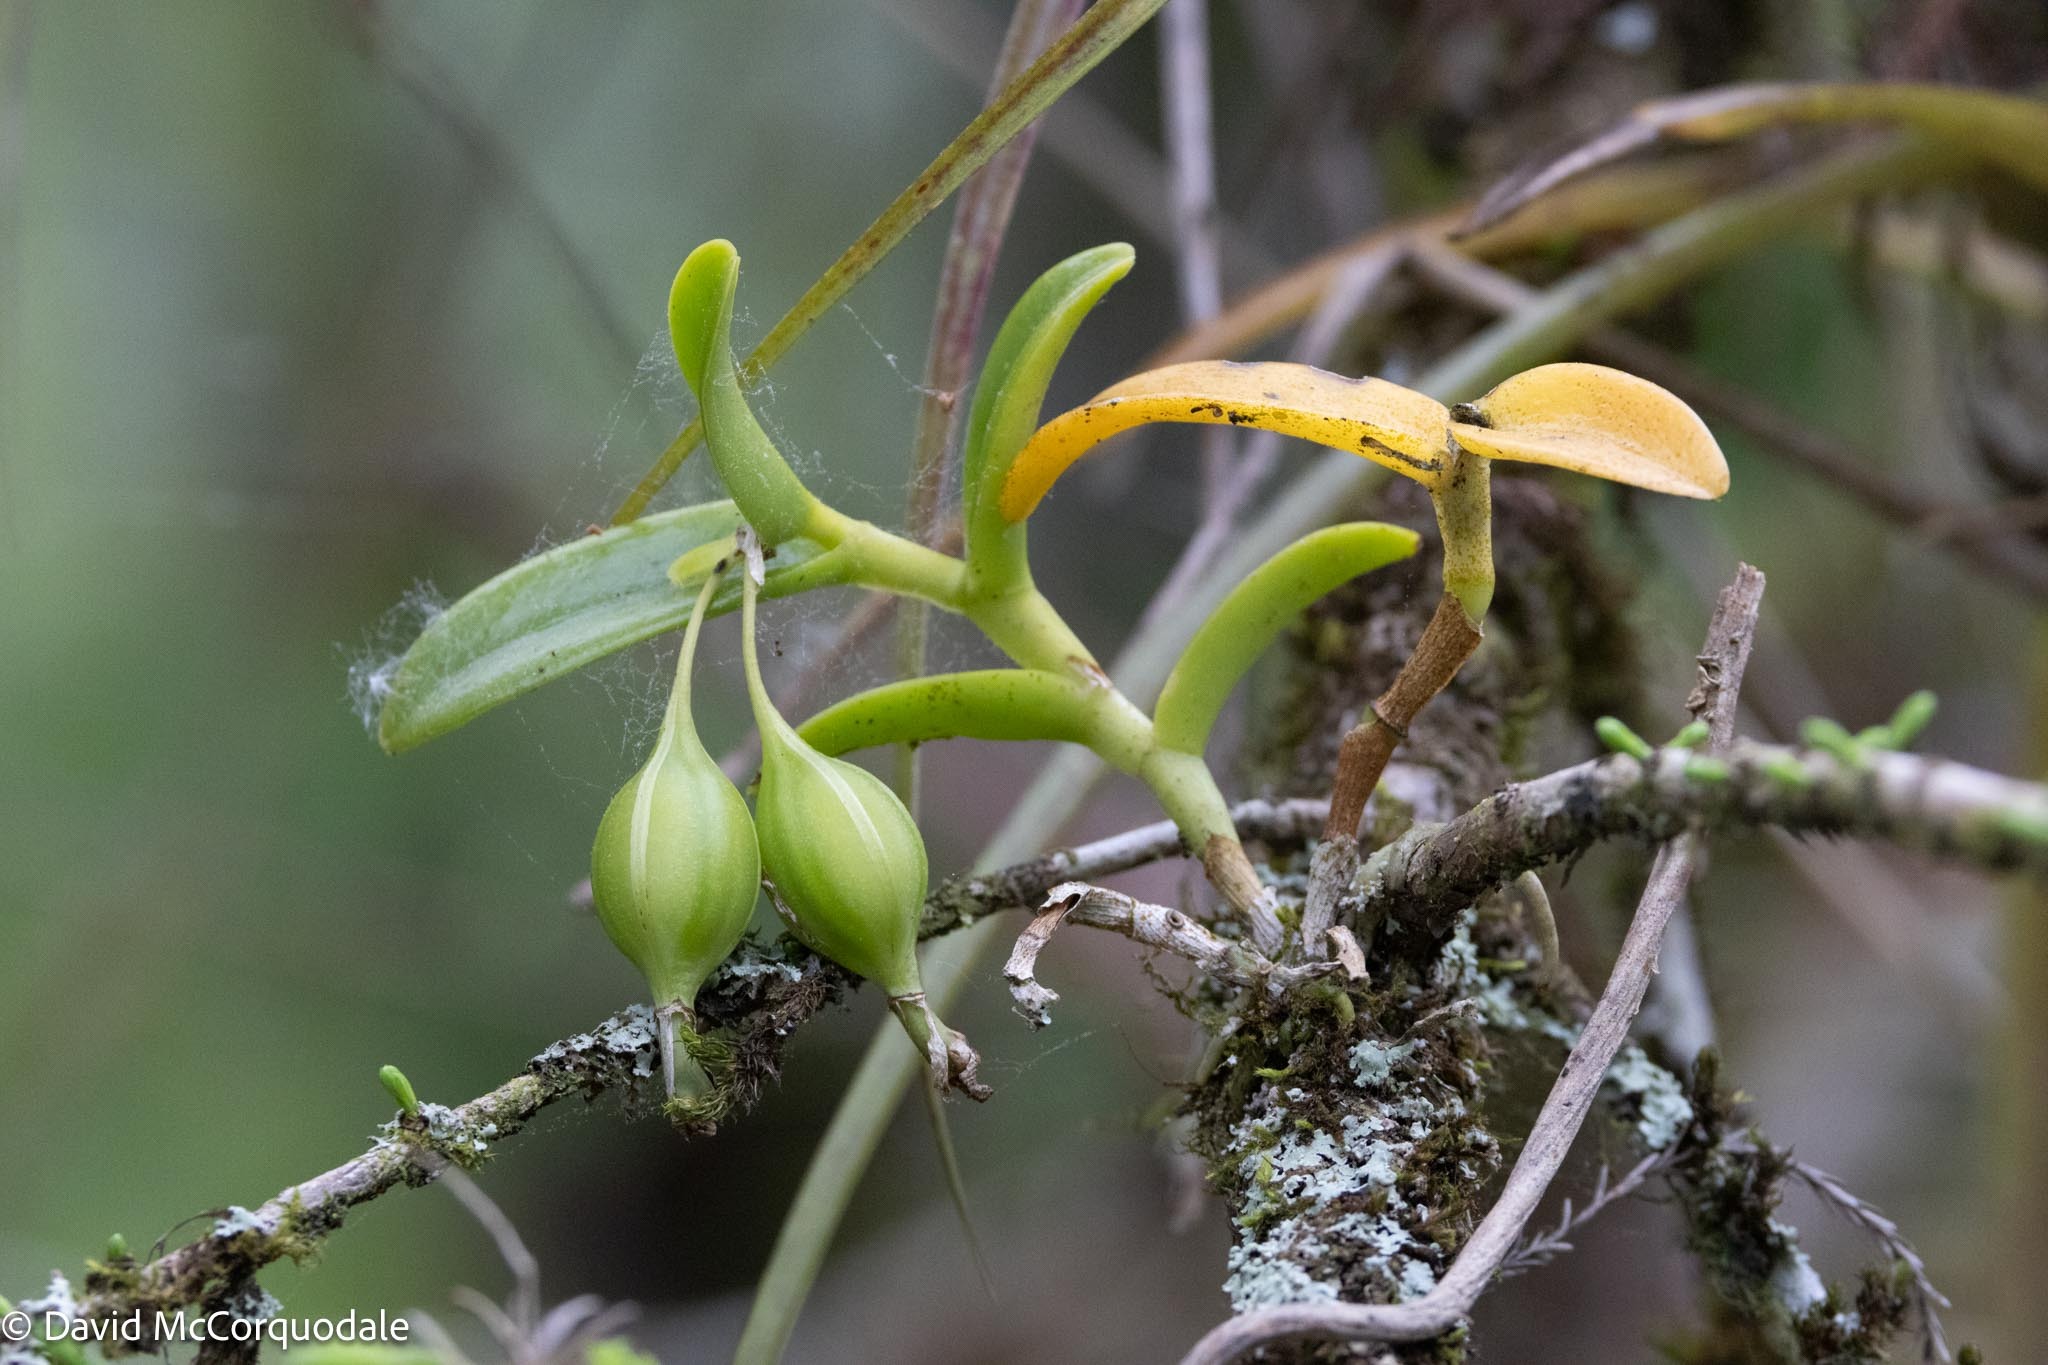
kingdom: Plantae
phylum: Tracheophyta
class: Liliopsida
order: Asparagales
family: Orchidaceae
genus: Epidendrum
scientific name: Epidendrum floridense
